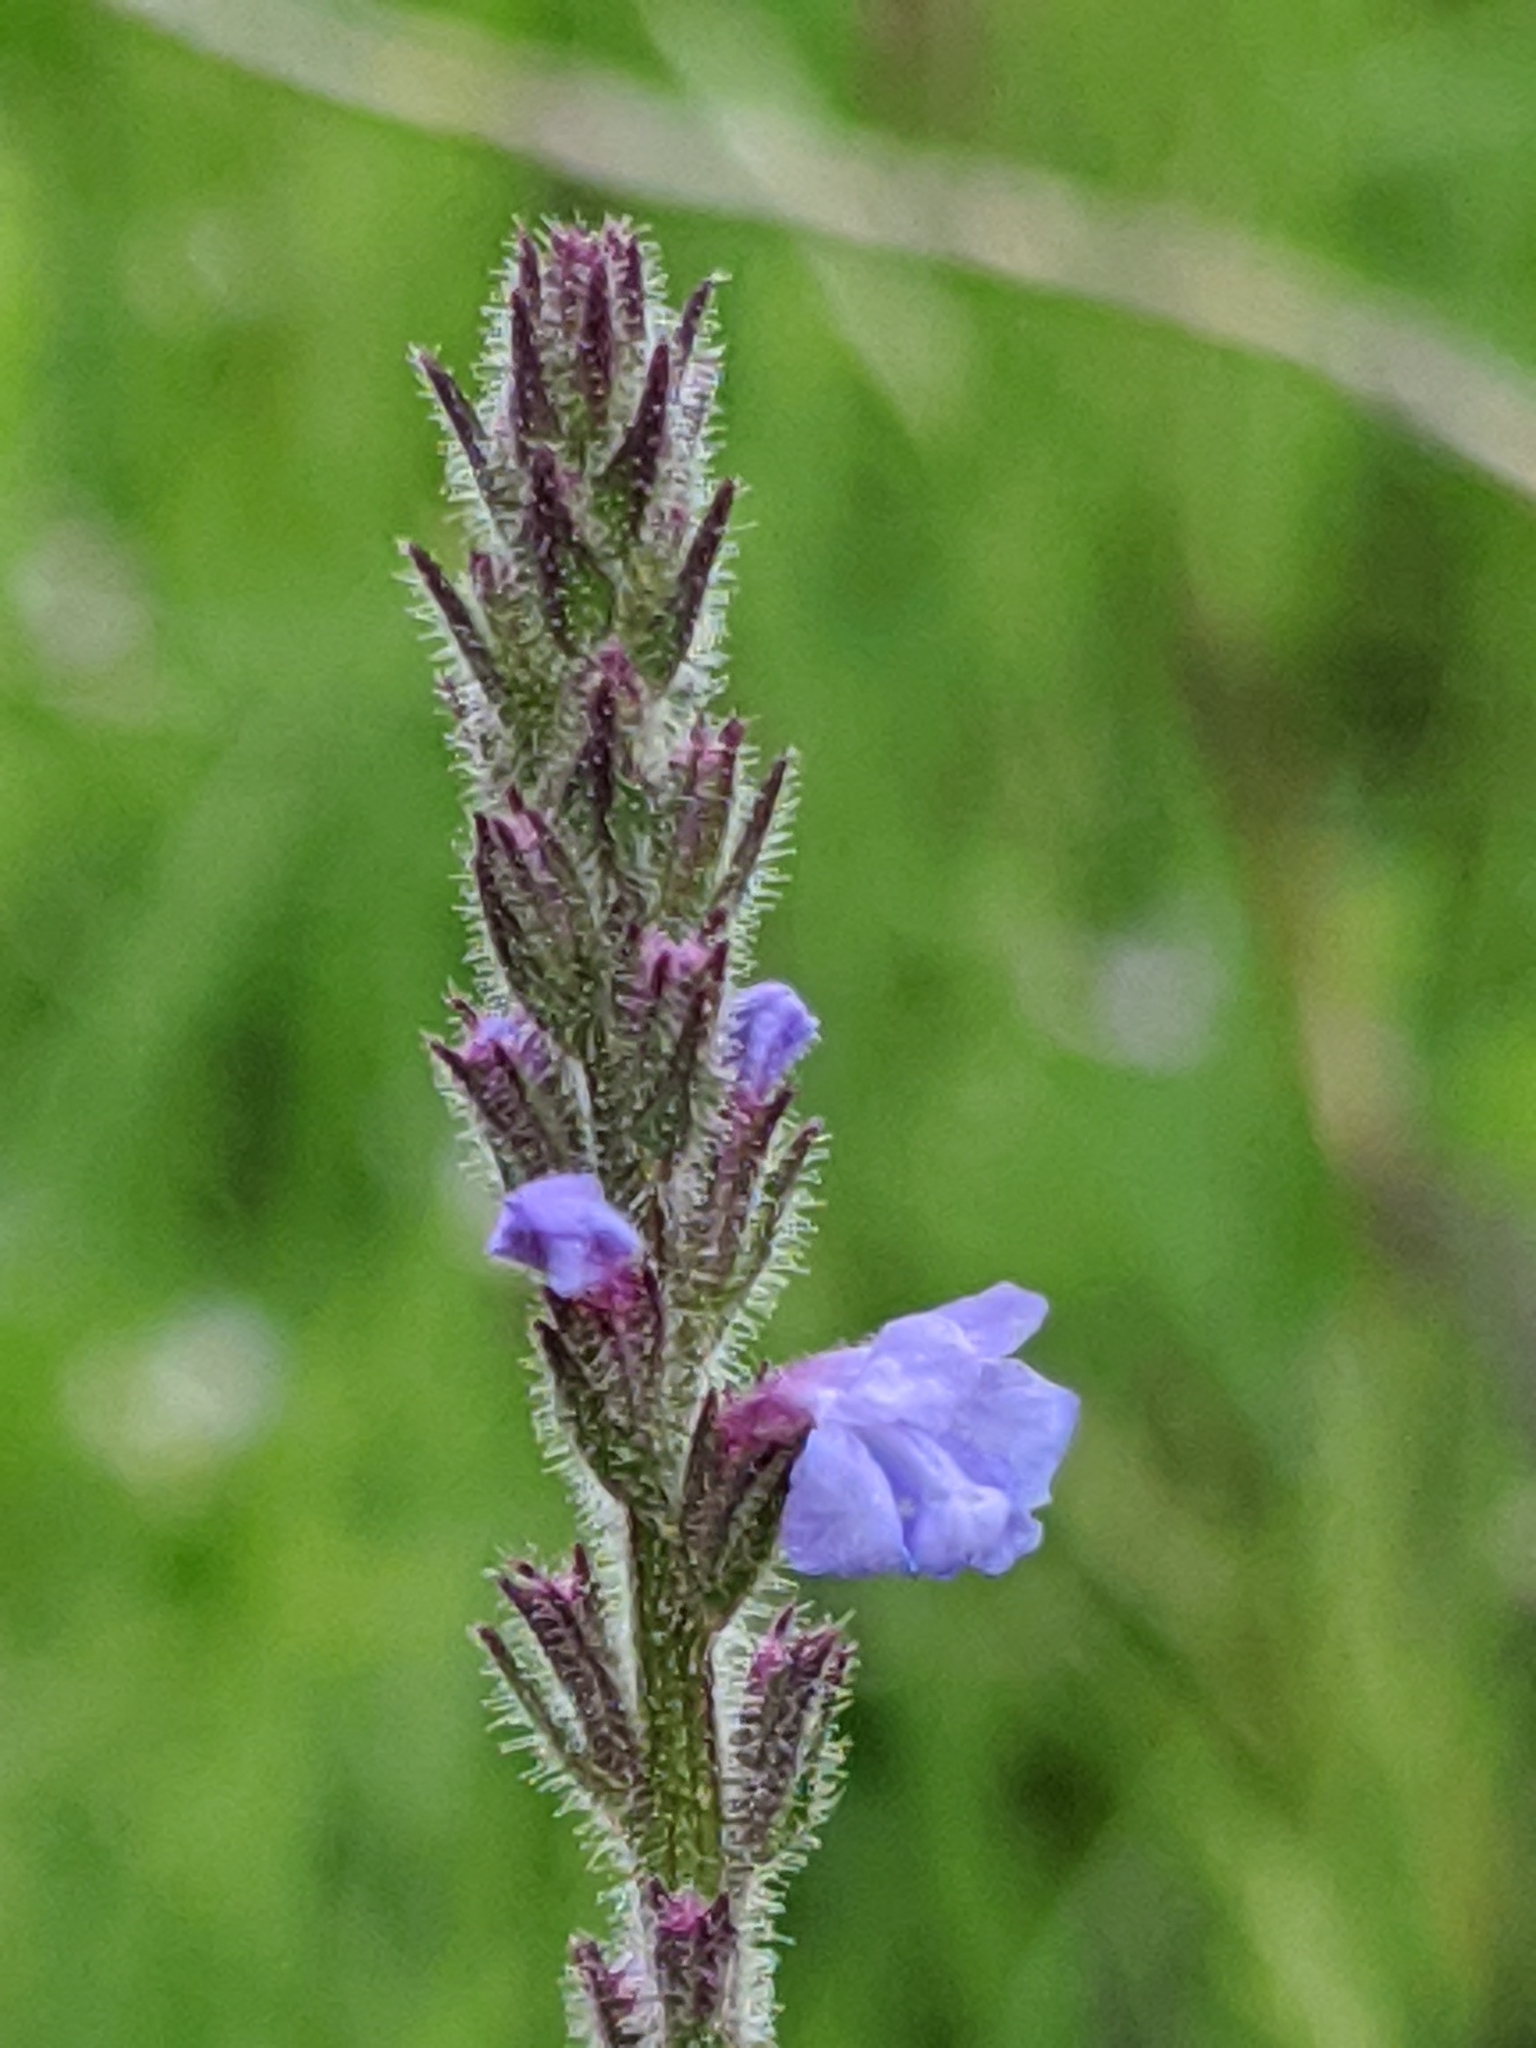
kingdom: Plantae
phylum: Tracheophyta
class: Magnoliopsida
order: Lamiales
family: Verbenaceae
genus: Verbena
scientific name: Verbena canescens
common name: Gray vervain
